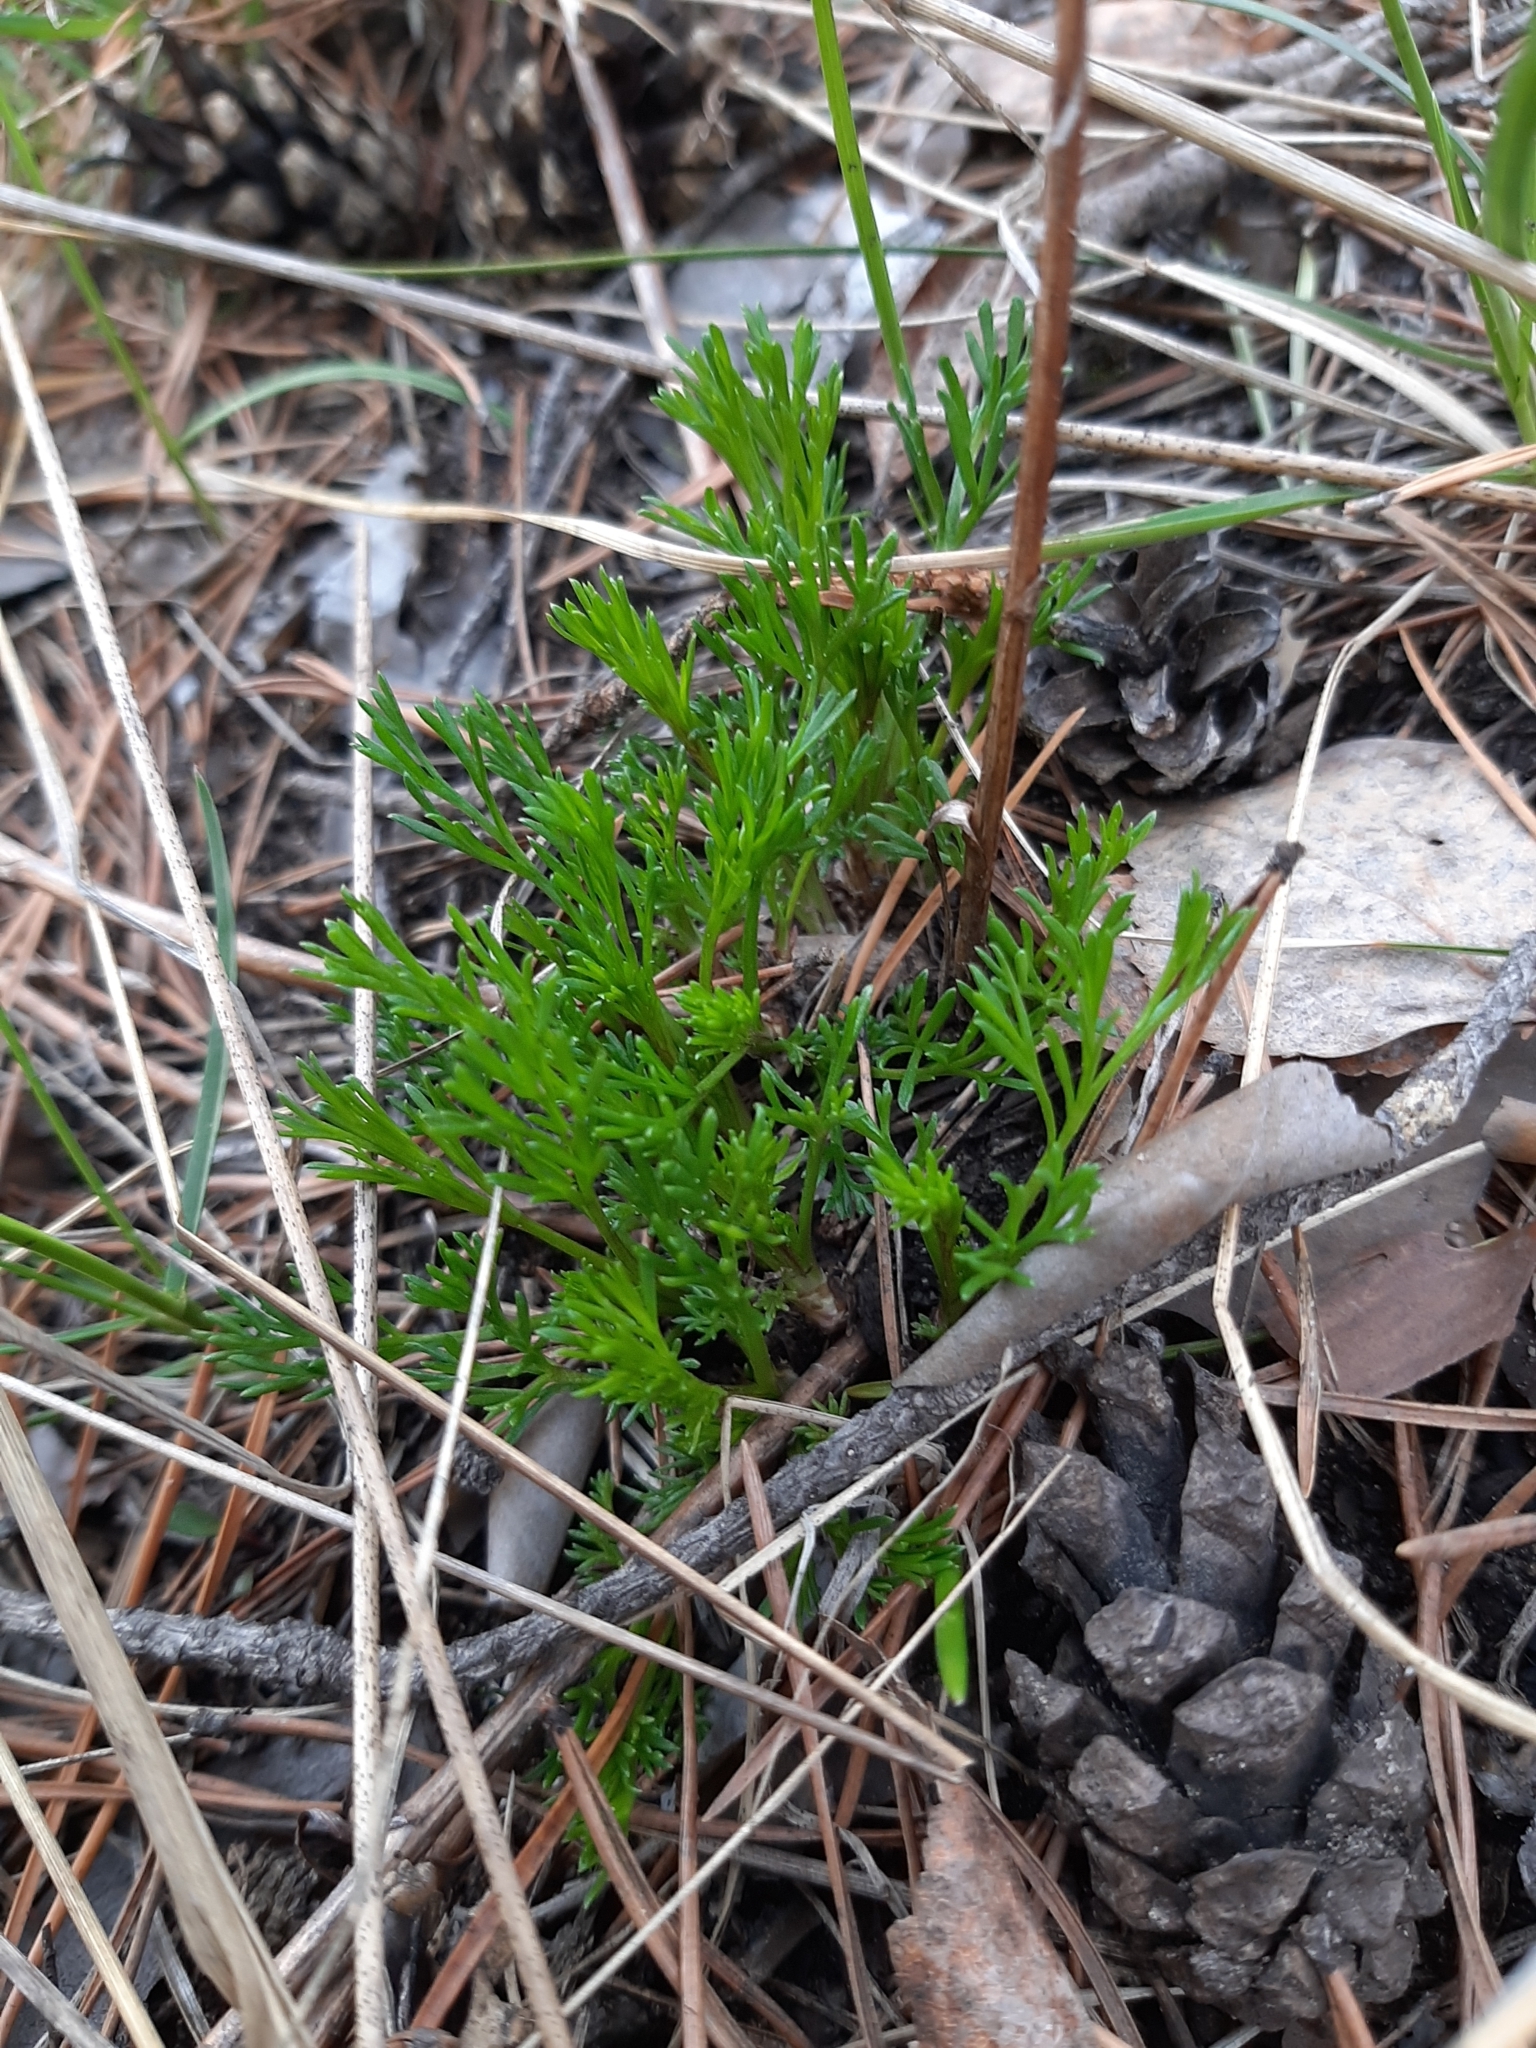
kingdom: Plantae
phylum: Tracheophyta
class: Magnoliopsida
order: Asterales
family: Asteraceae
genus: Artemisia
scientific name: Artemisia campestris
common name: Field wormwood
